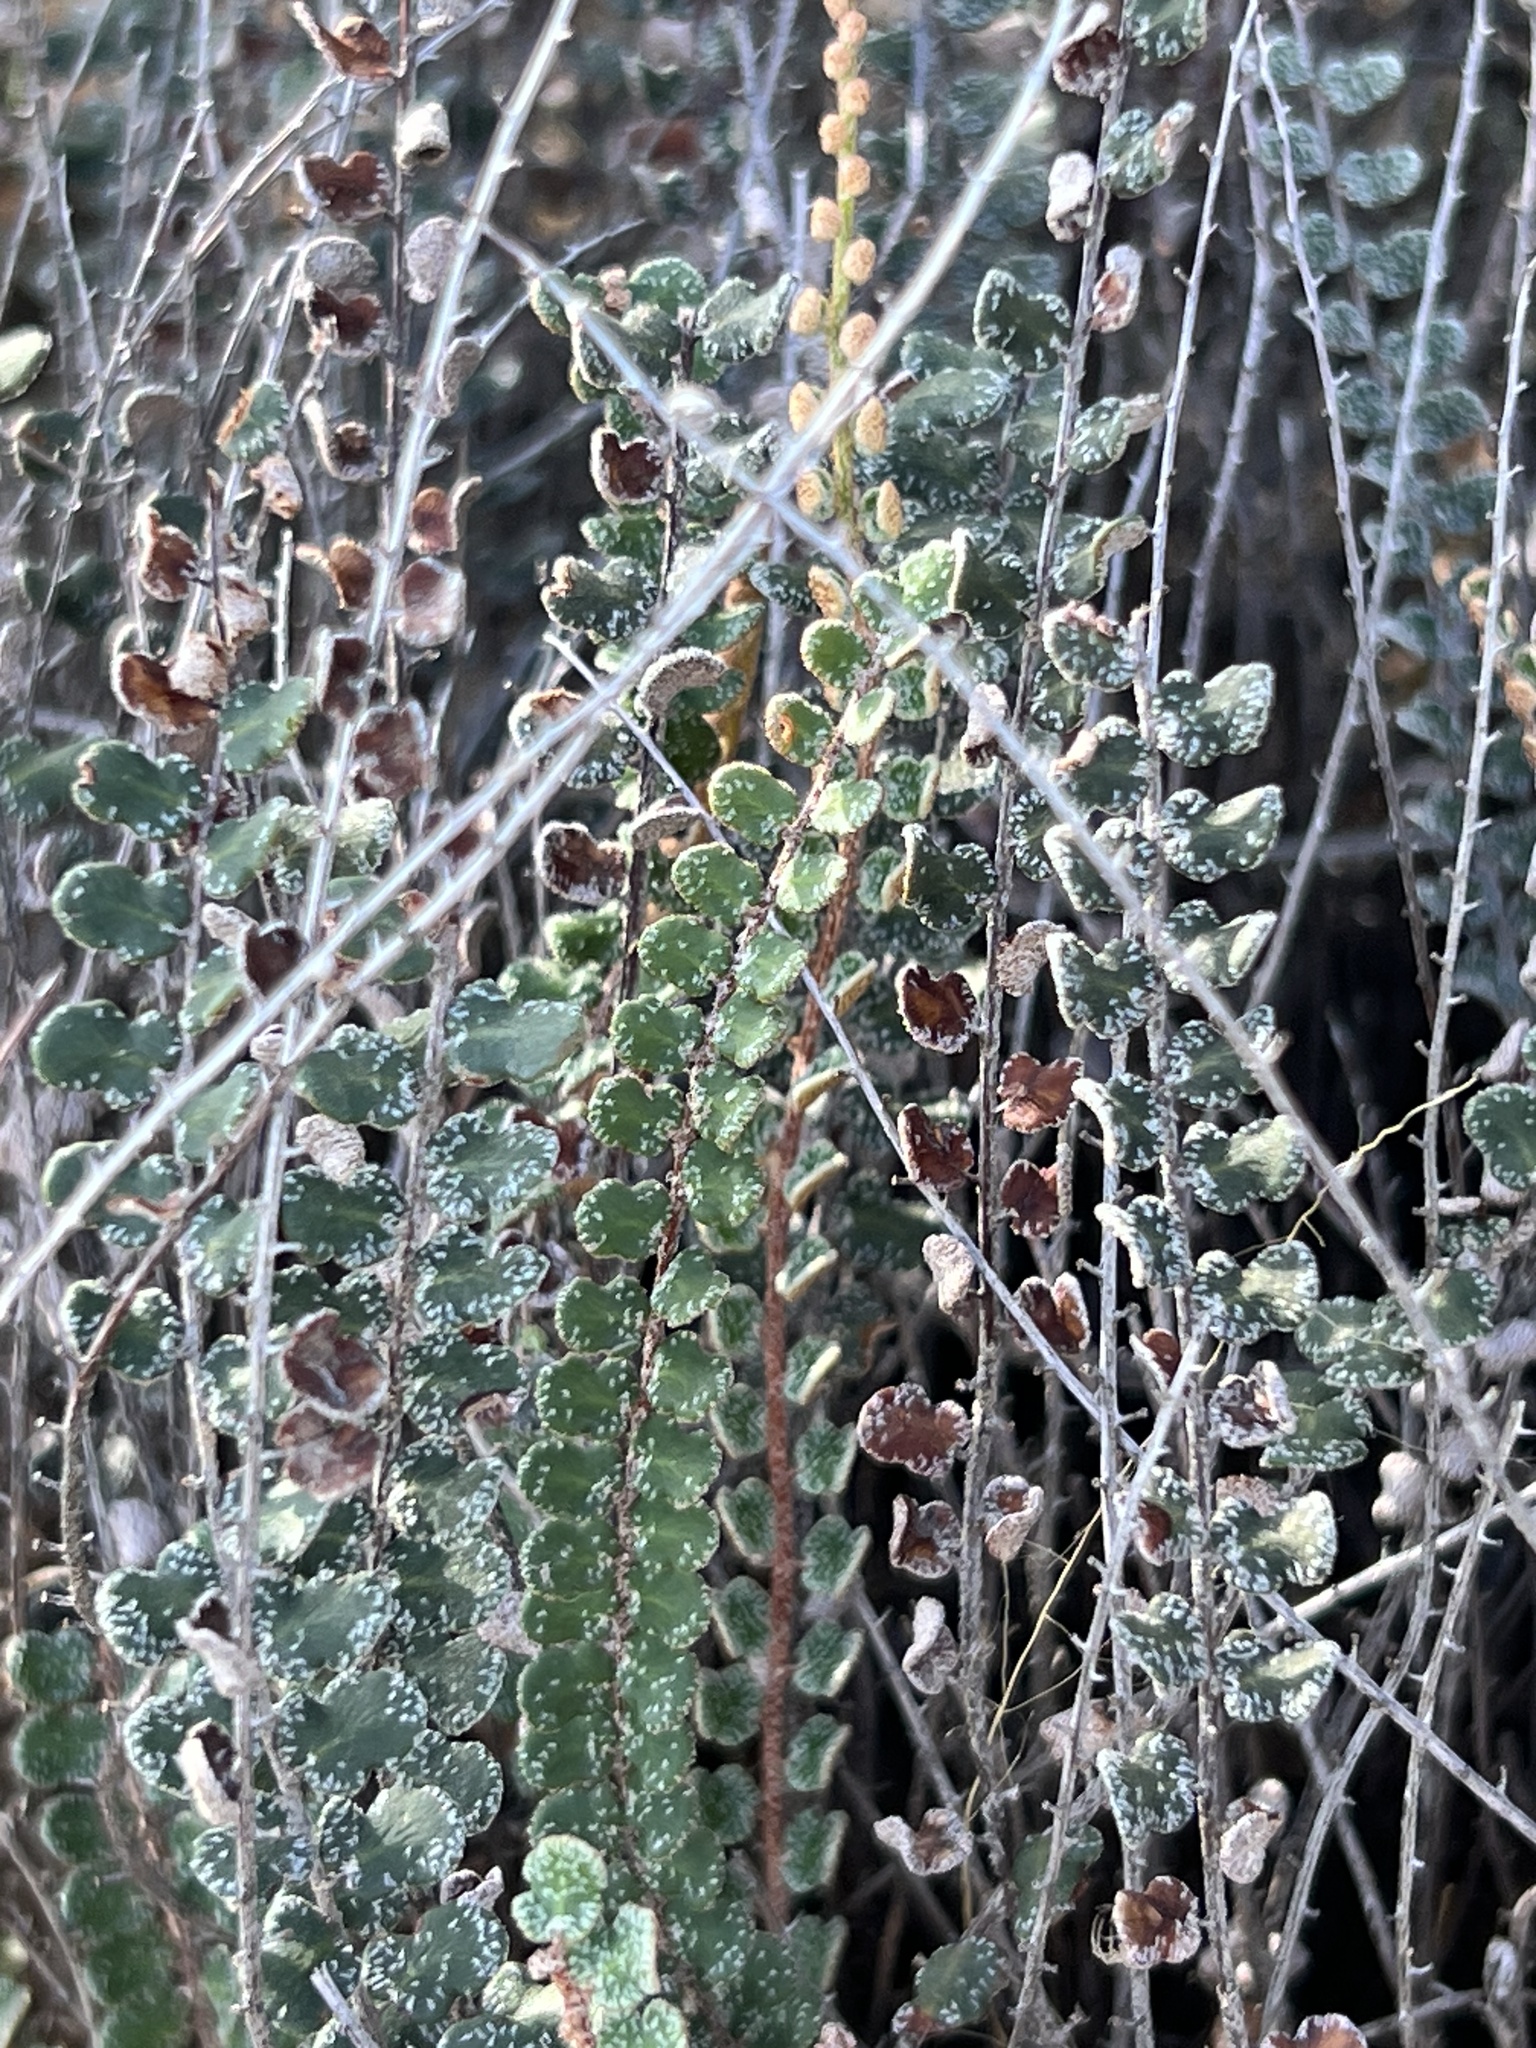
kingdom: Plantae
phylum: Tracheophyta
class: Polypodiopsida
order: Polypodiales
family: Pteridaceae
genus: Astrolepis
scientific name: Astrolepis cochisensis
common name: Scaly cloak fern
